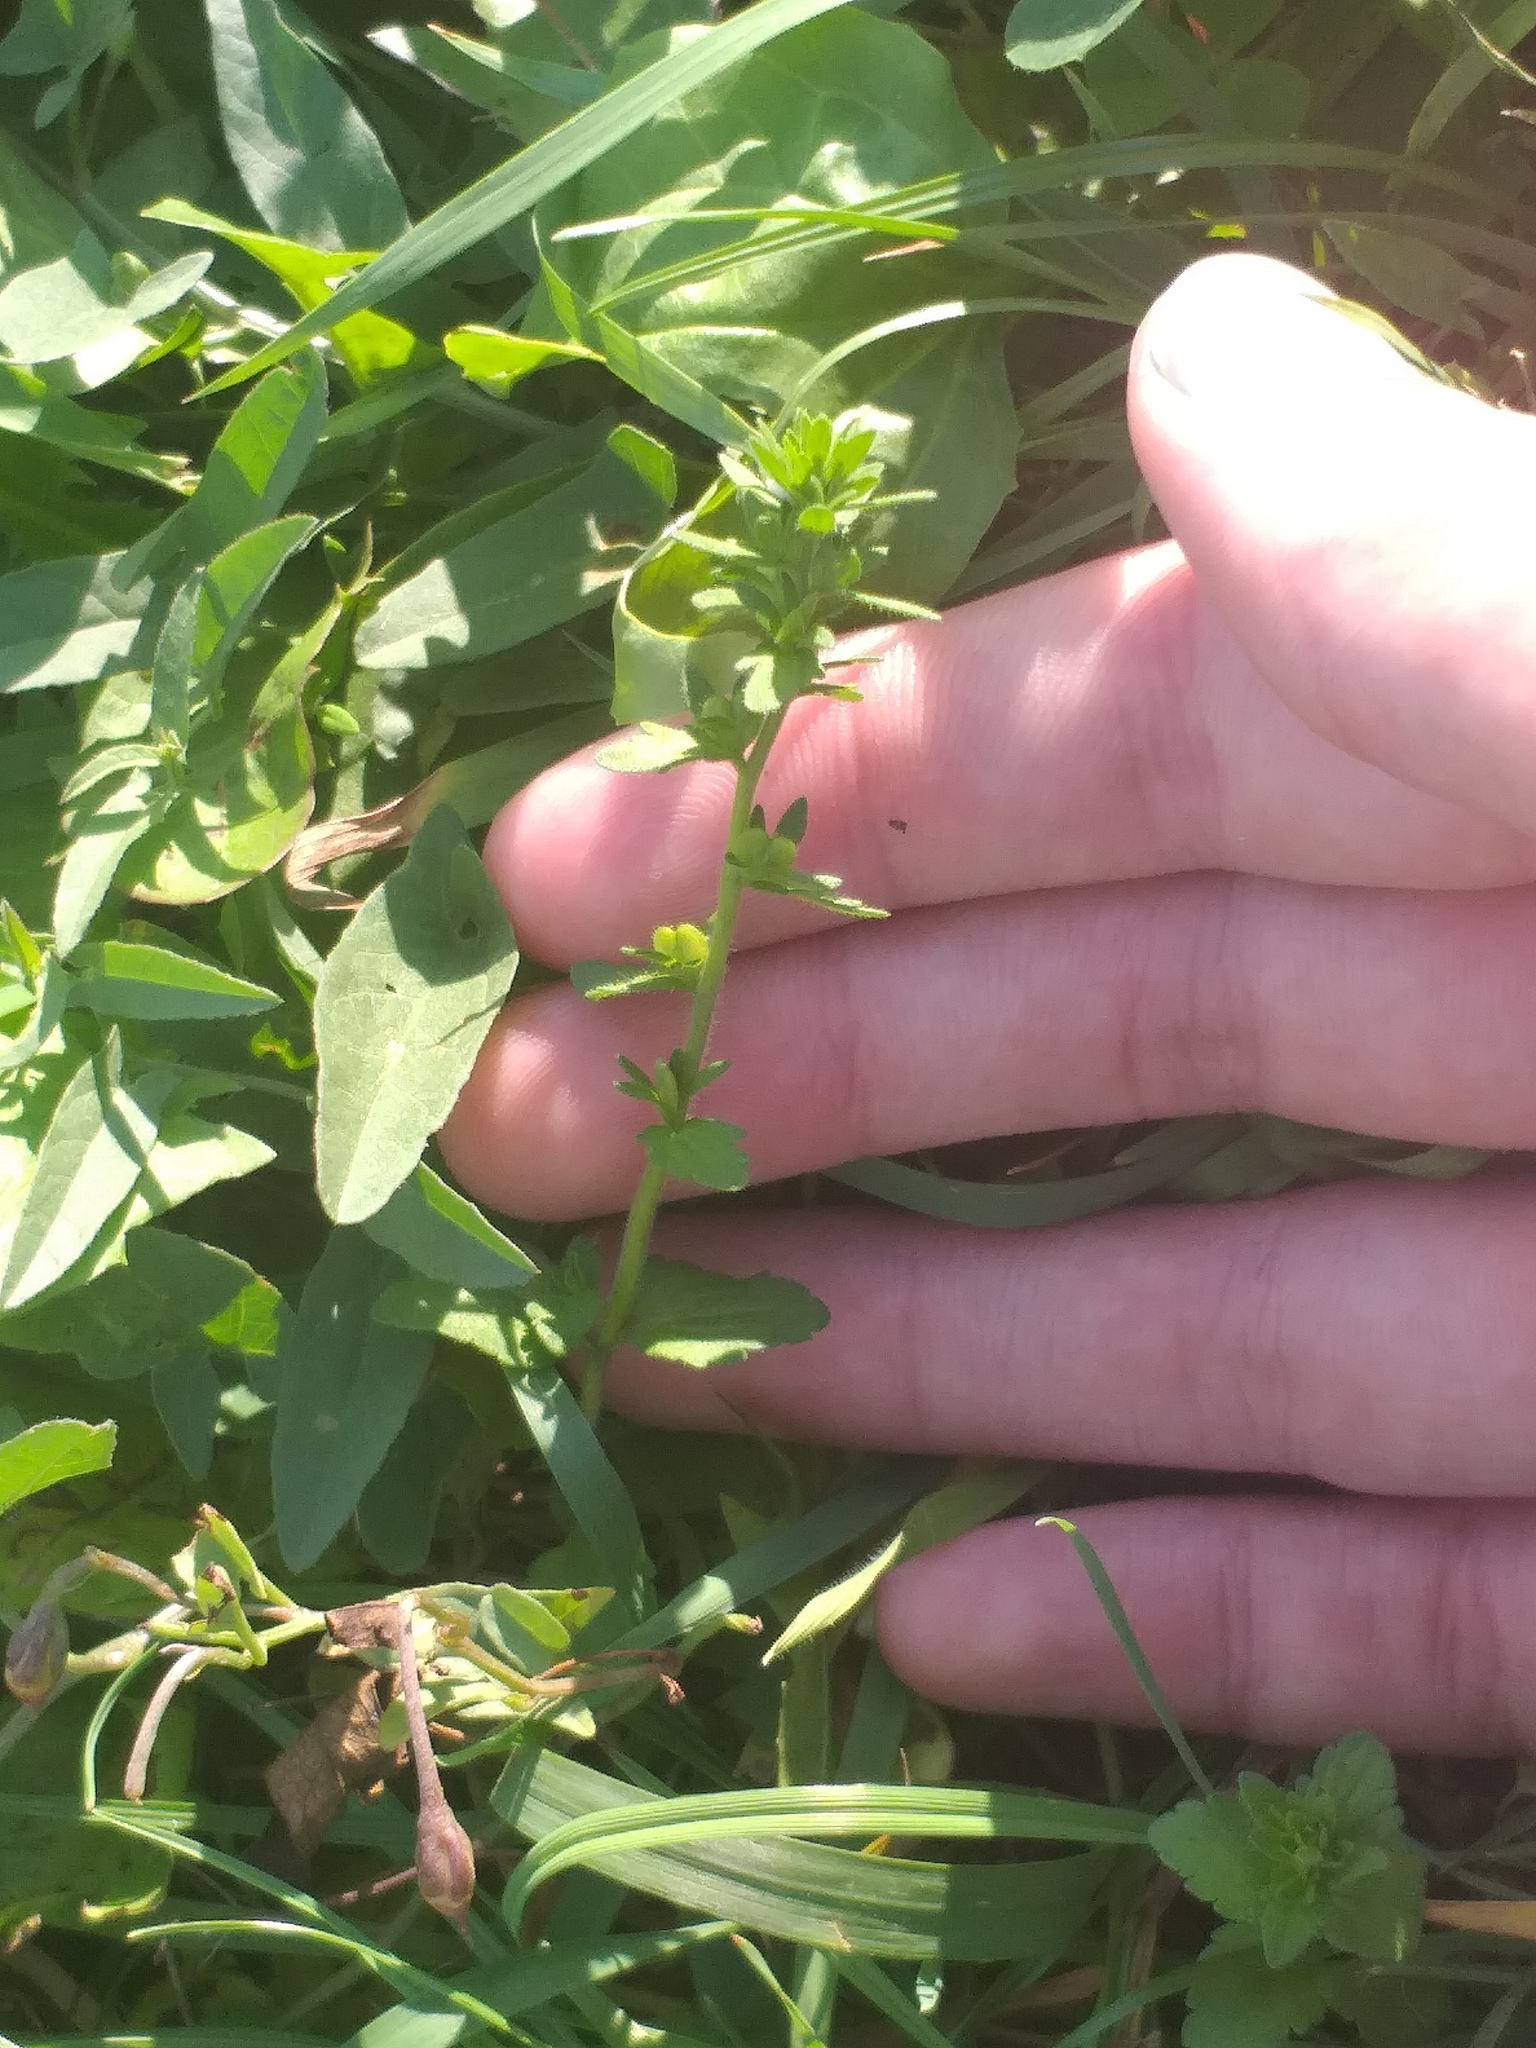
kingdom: Plantae
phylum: Tracheophyta
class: Magnoliopsida
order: Lamiales
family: Plantaginaceae
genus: Veronica
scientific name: Veronica arvensis
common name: Corn speedwell
